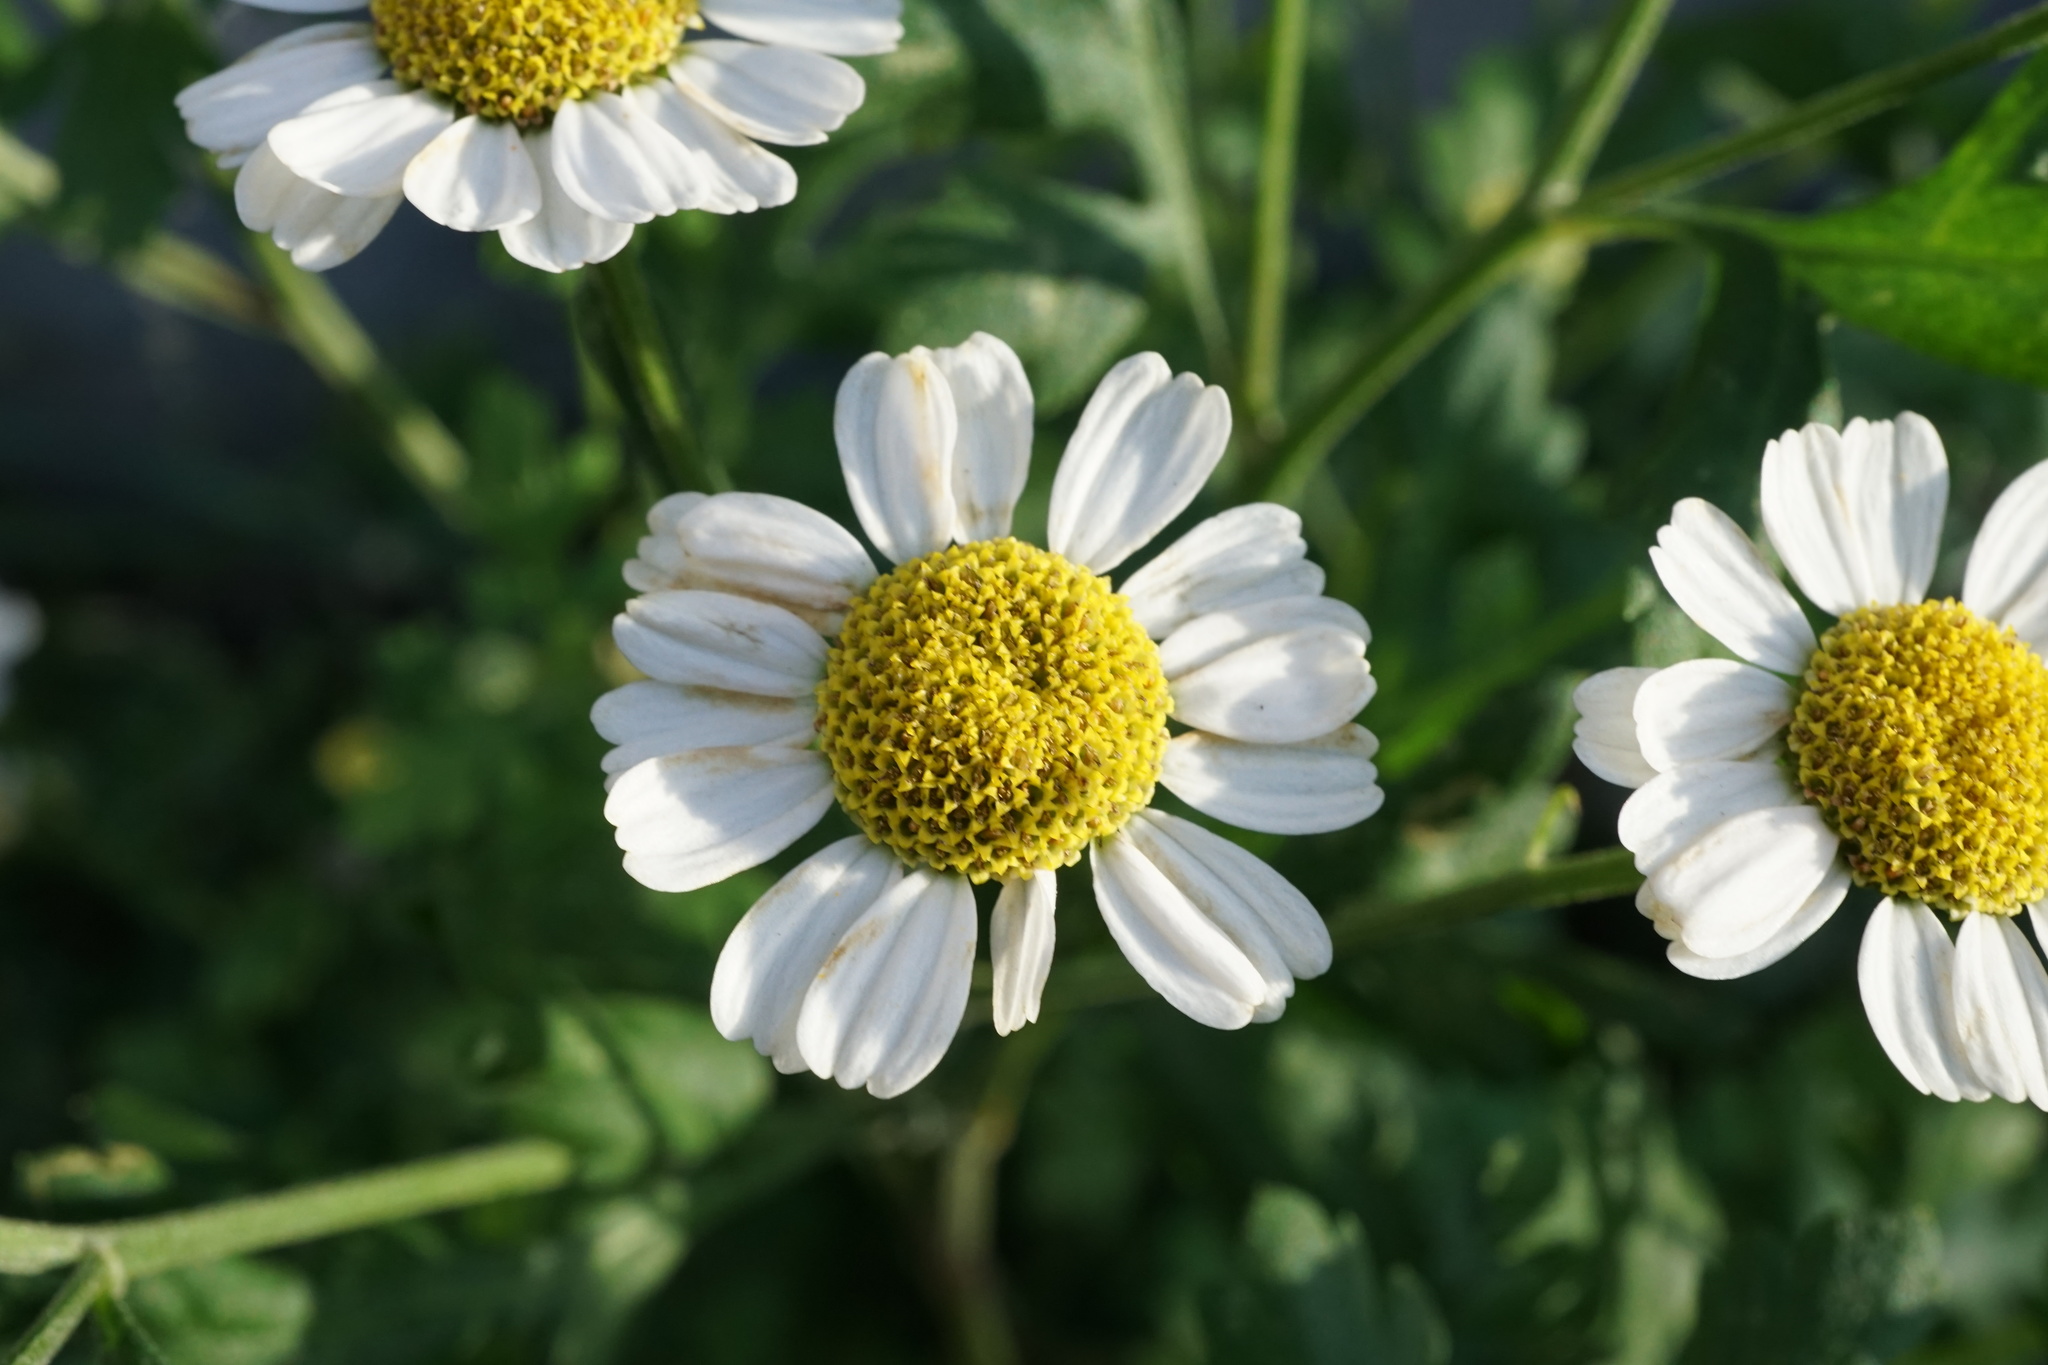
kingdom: Plantae
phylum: Tracheophyta
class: Magnoliopsida
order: Asterales
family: Asteraceae
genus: Tanacetum
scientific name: Tanacetum parthenium
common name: Feverfew
